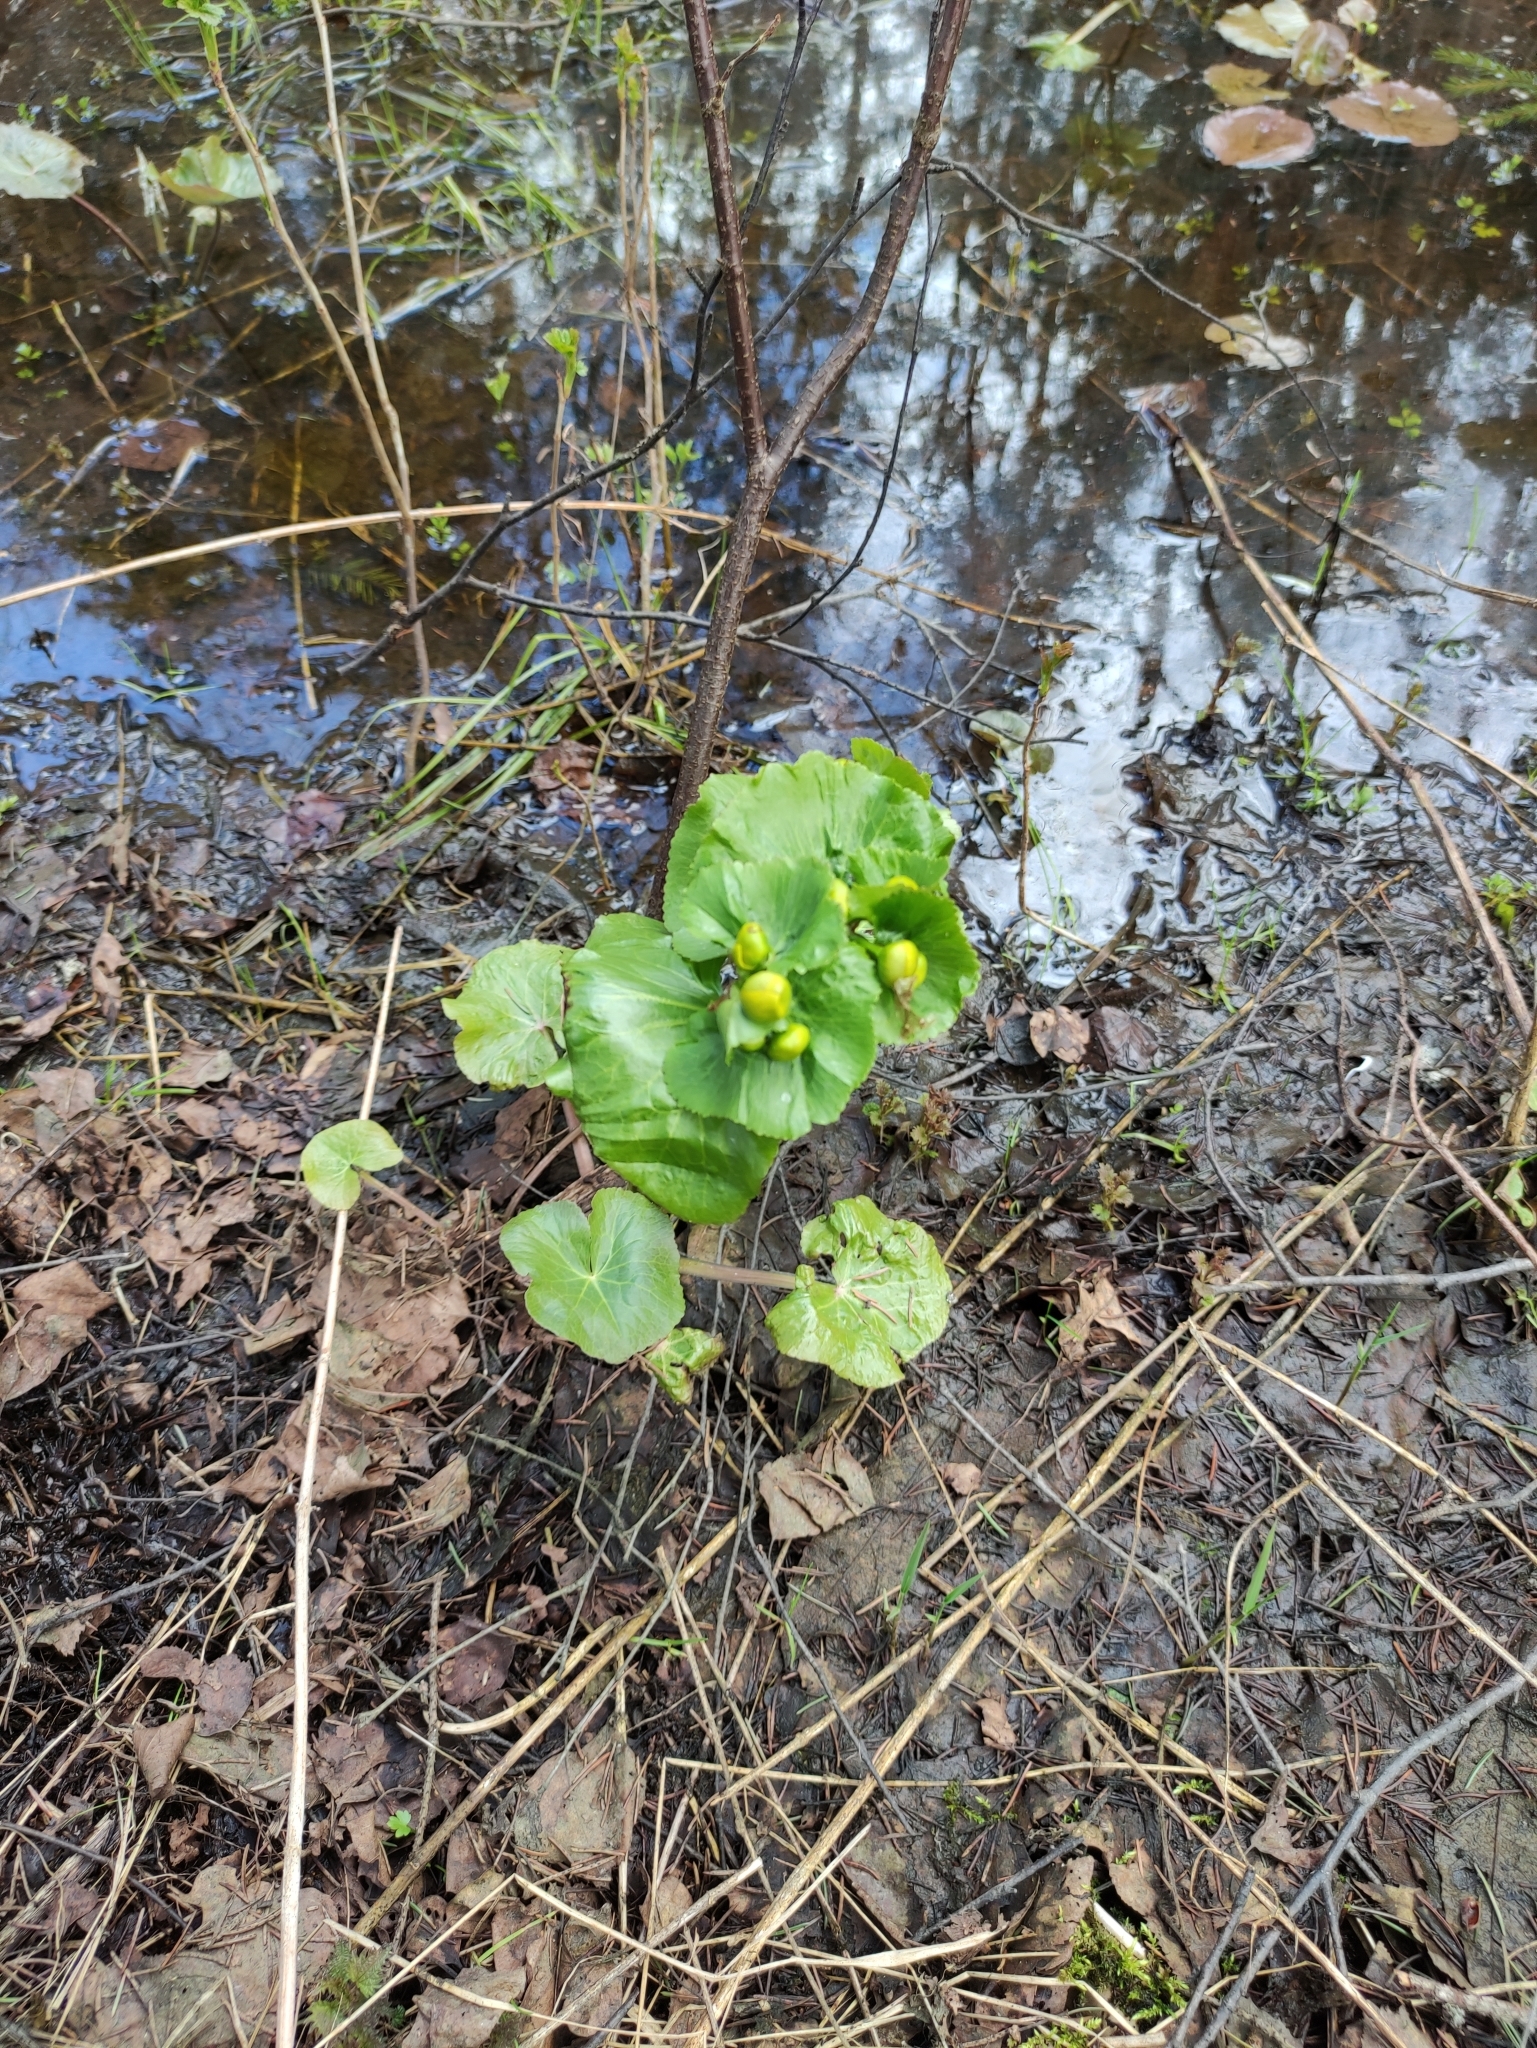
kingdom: Plantae
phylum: Tracheophyta
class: Magnoliopsida
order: Ranunculales
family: Ranunculaceae
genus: Caltha
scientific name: Caltha palustris
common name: Marsh marigold
